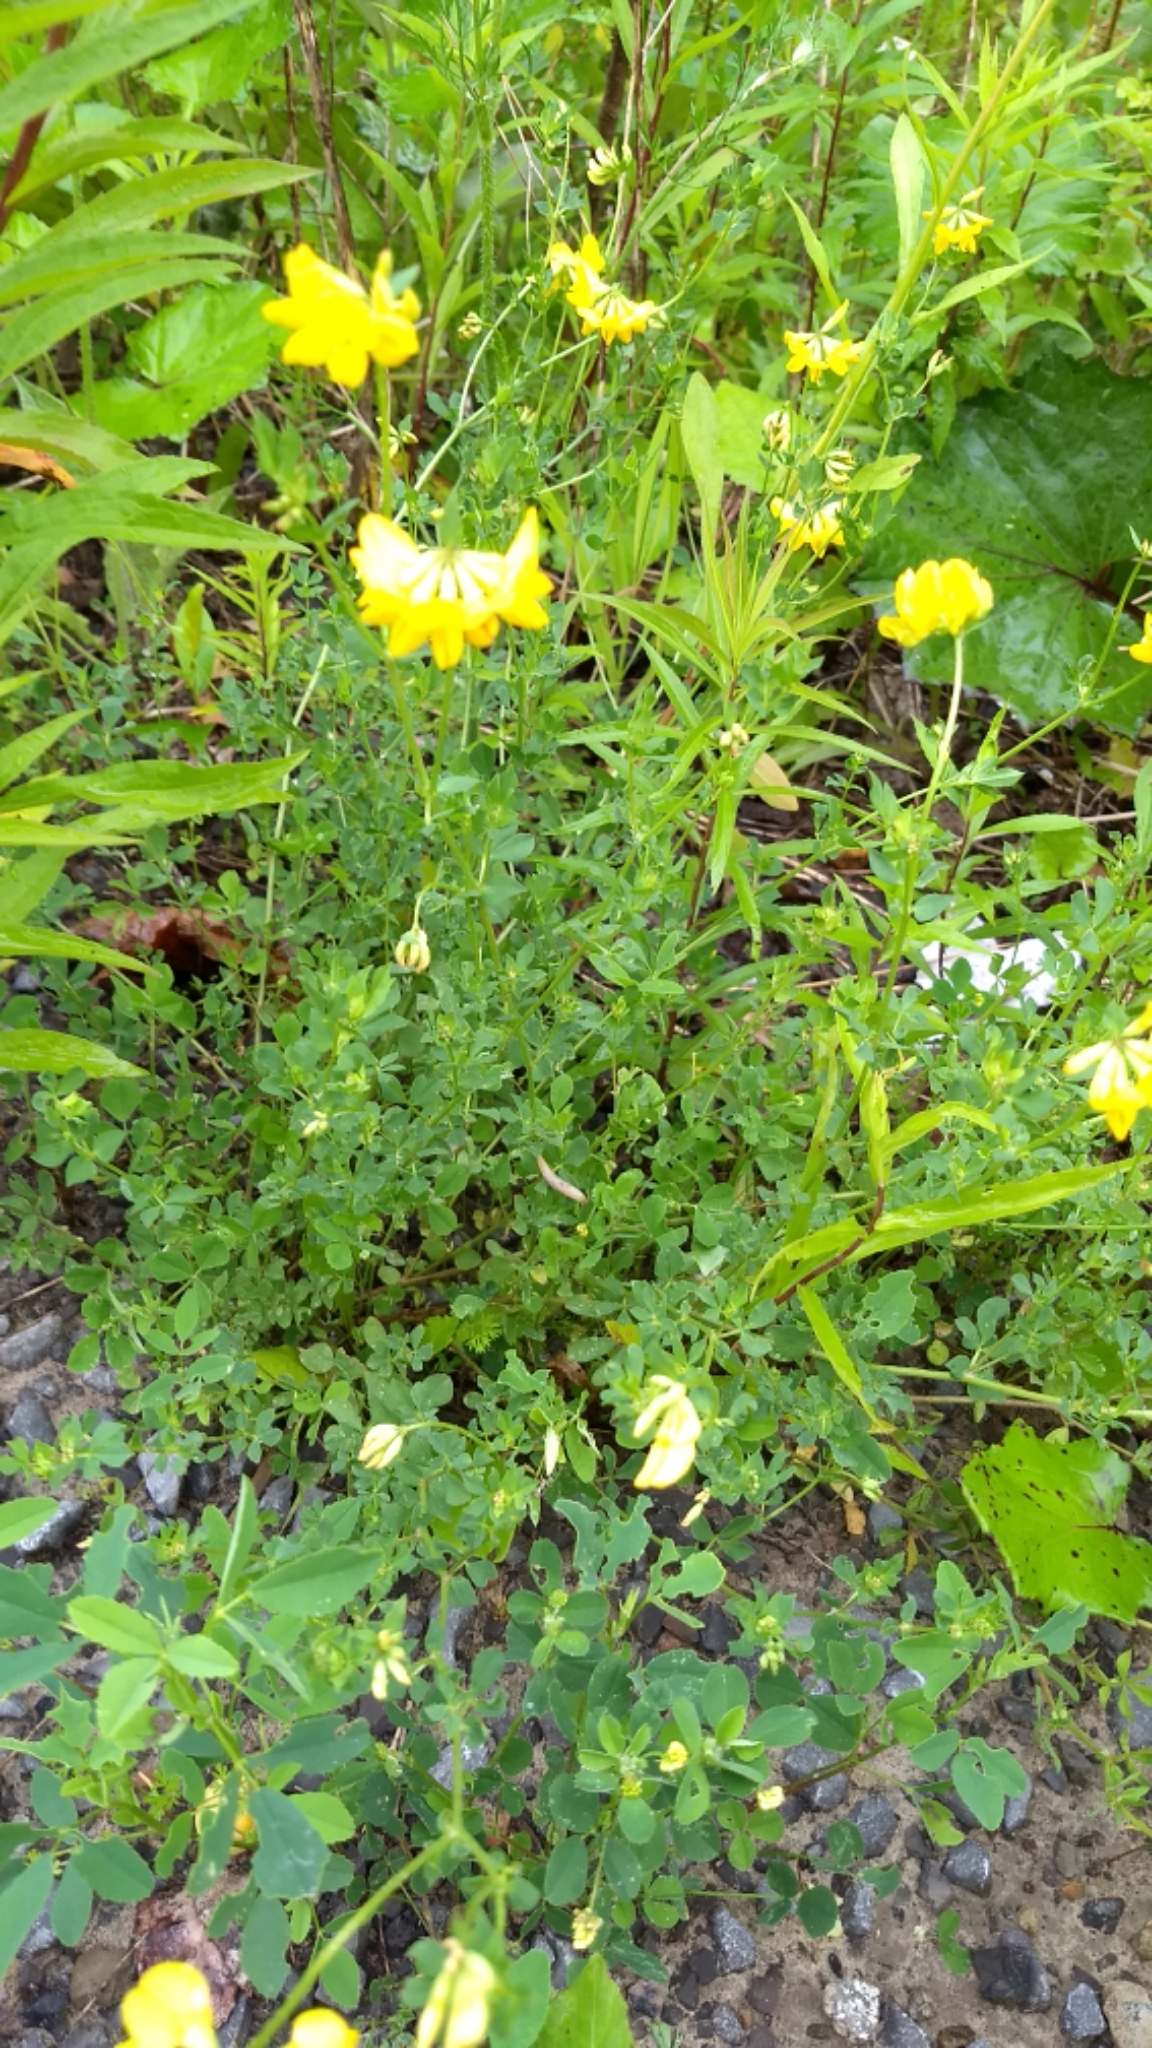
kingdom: Plantae
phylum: Tracheophyta
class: Magnoliopsida
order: Fabales
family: Fabaceae
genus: Lotus
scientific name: Lotus corniculatus
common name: Common bird's-foot-trefoil
